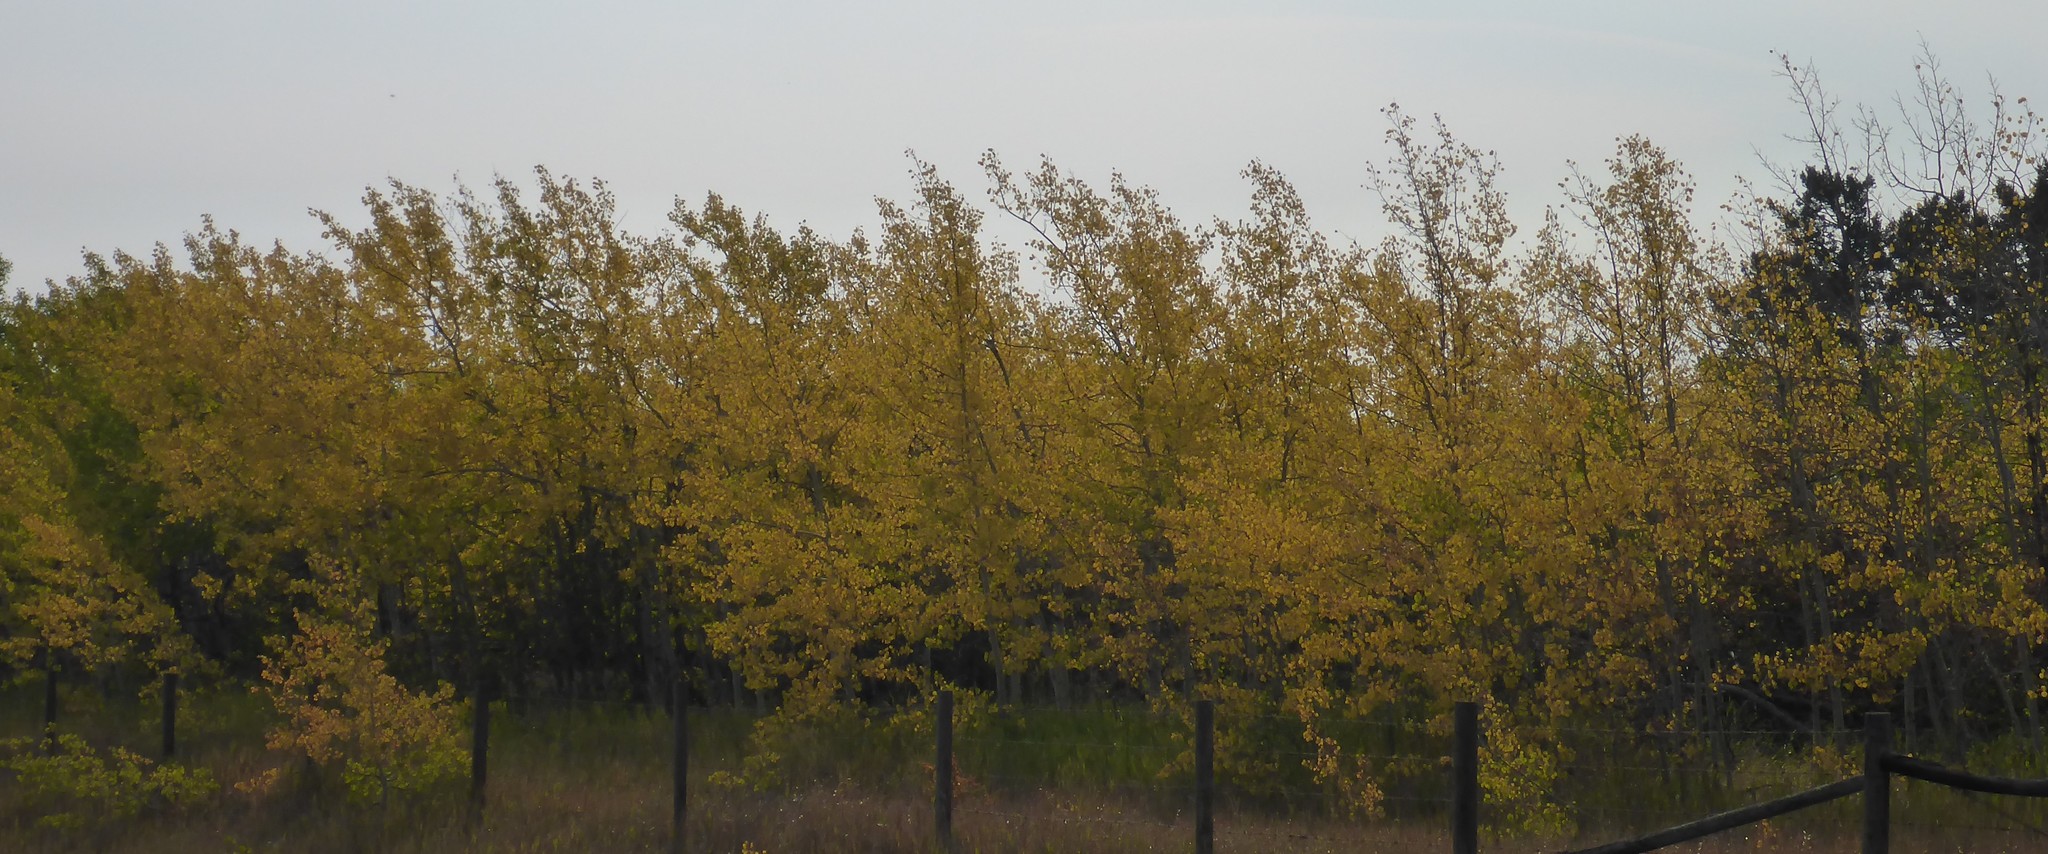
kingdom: Plantae
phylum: Tracheophyta
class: Magnoliopsida
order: Malpighiales
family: Salicaceae
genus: Populus
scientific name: Populus tremuloides
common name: Quaking aspen
